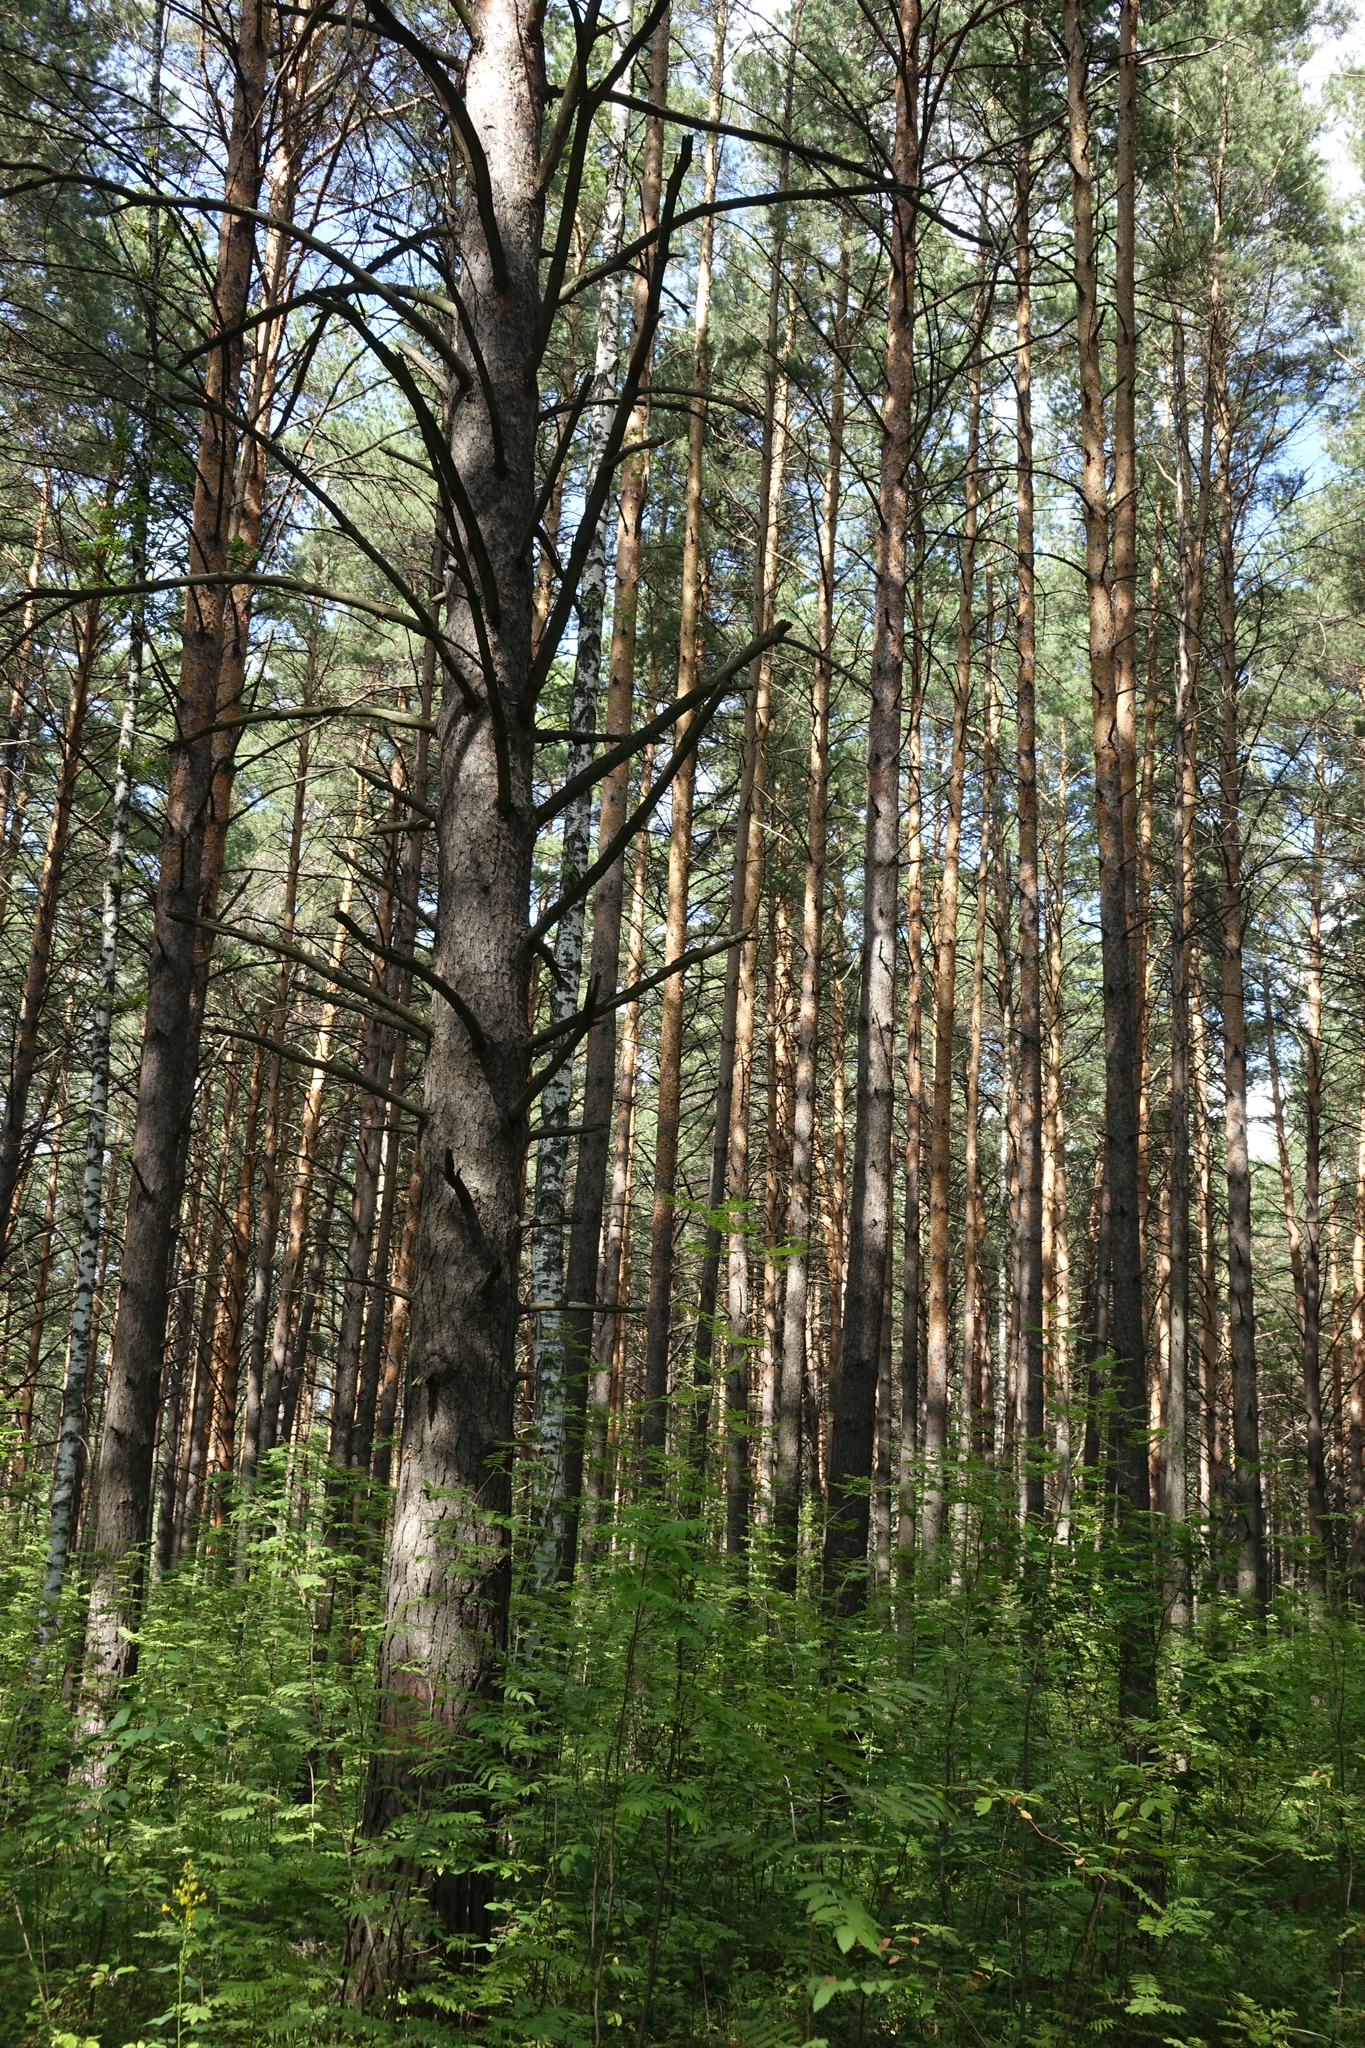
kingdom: Plantae
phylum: Tracheophyta
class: Pinopsida
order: Pinales
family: Pinaceae
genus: Pinus
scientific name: Pinus sylvestris
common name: Scots pine
